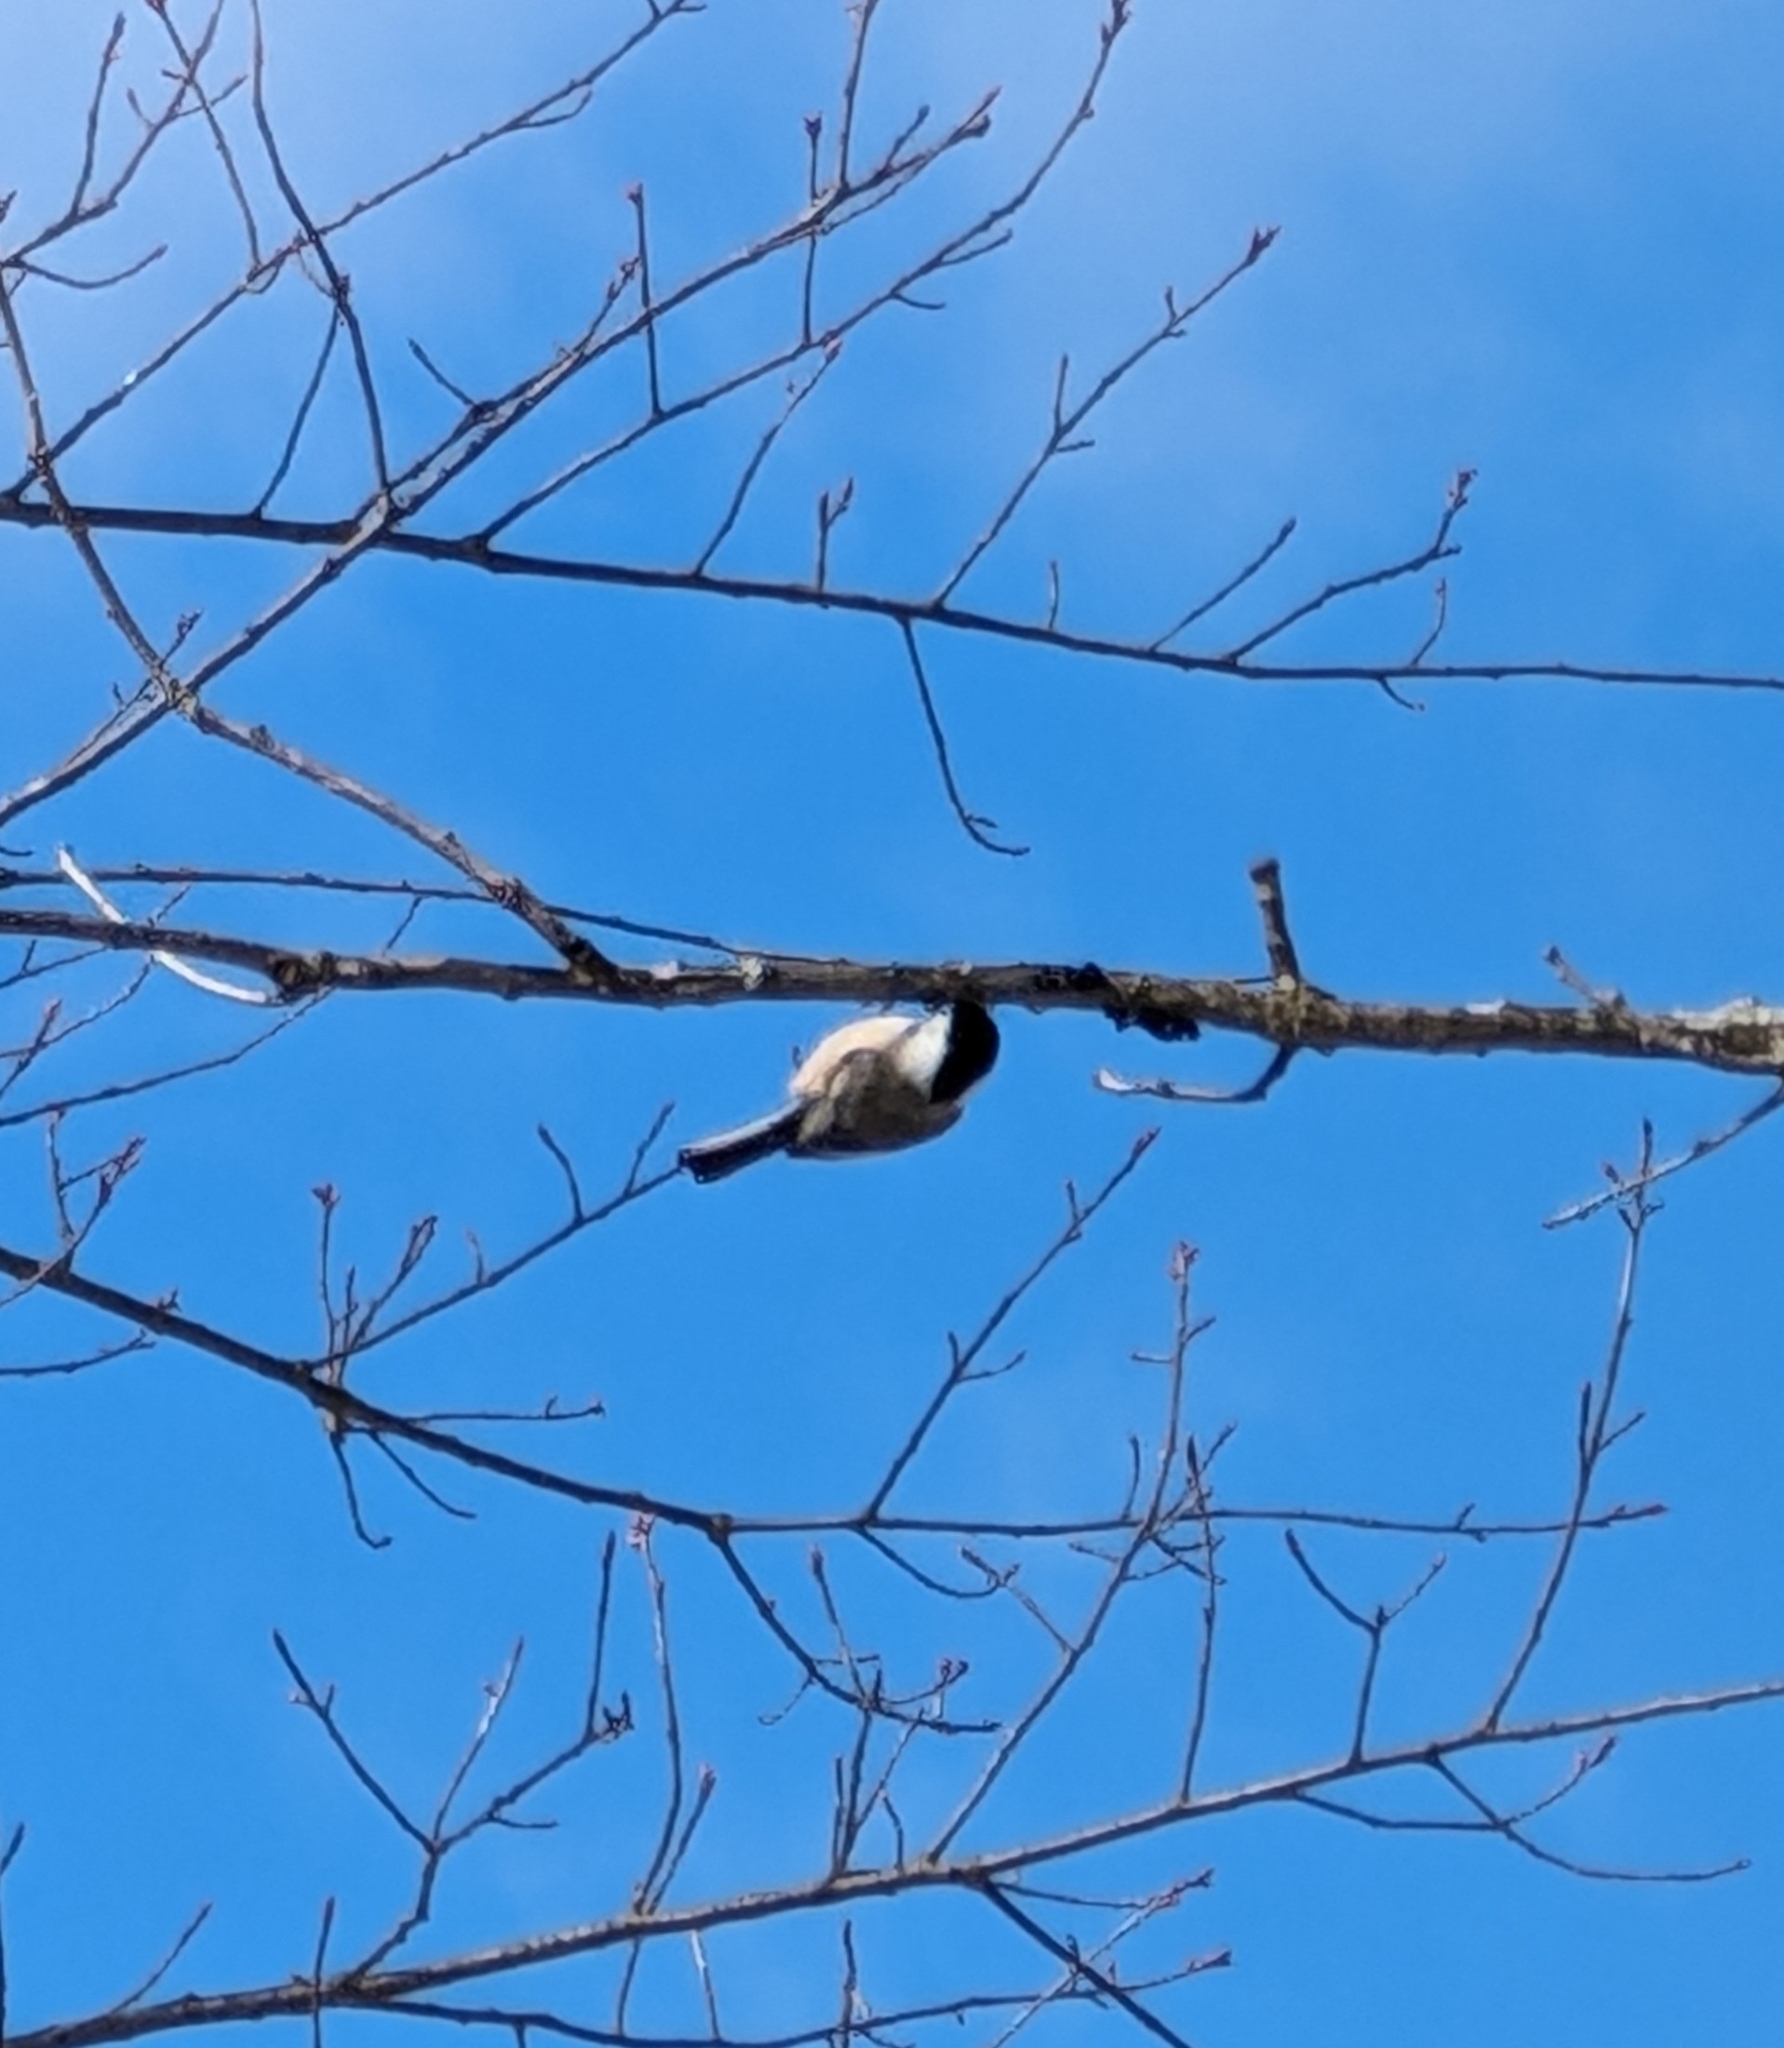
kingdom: Animalia
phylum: Chordata
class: Aves
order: Passeriformes
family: Paridae
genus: Poecile
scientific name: Poecile atricapillus
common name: Black-capped chickadee
